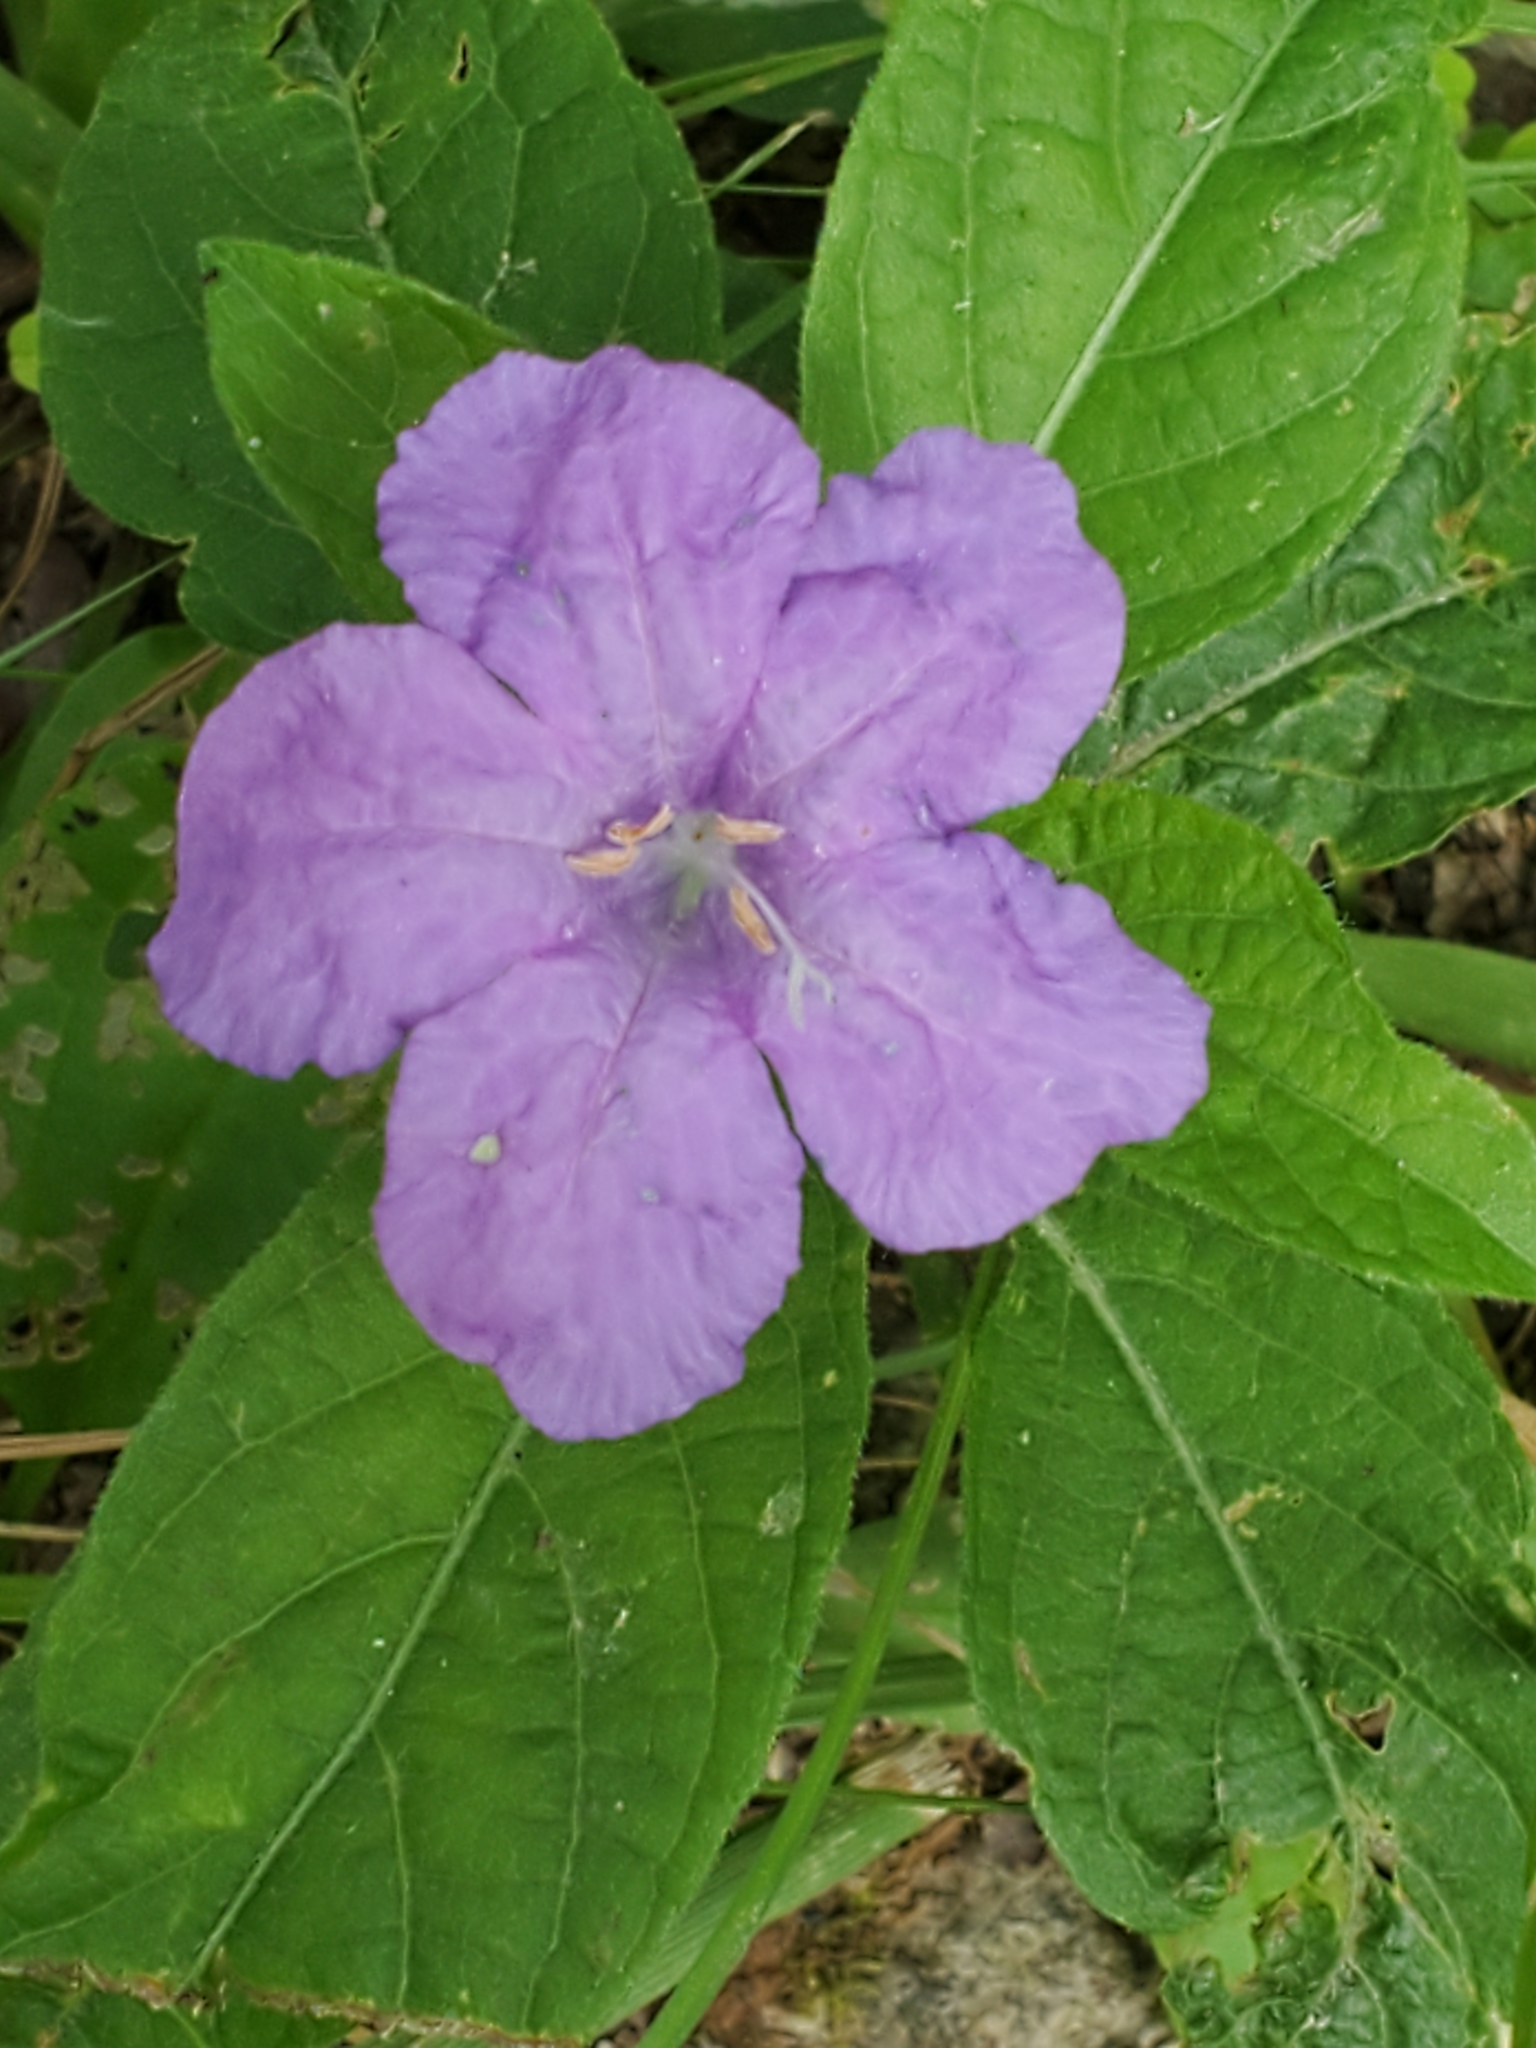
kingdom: Plantae
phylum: Tracheophyta
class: Magnoliopsida
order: Lamiales
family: Acanthaceae
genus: Ruellia
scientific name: Ruellia caroliniensis
